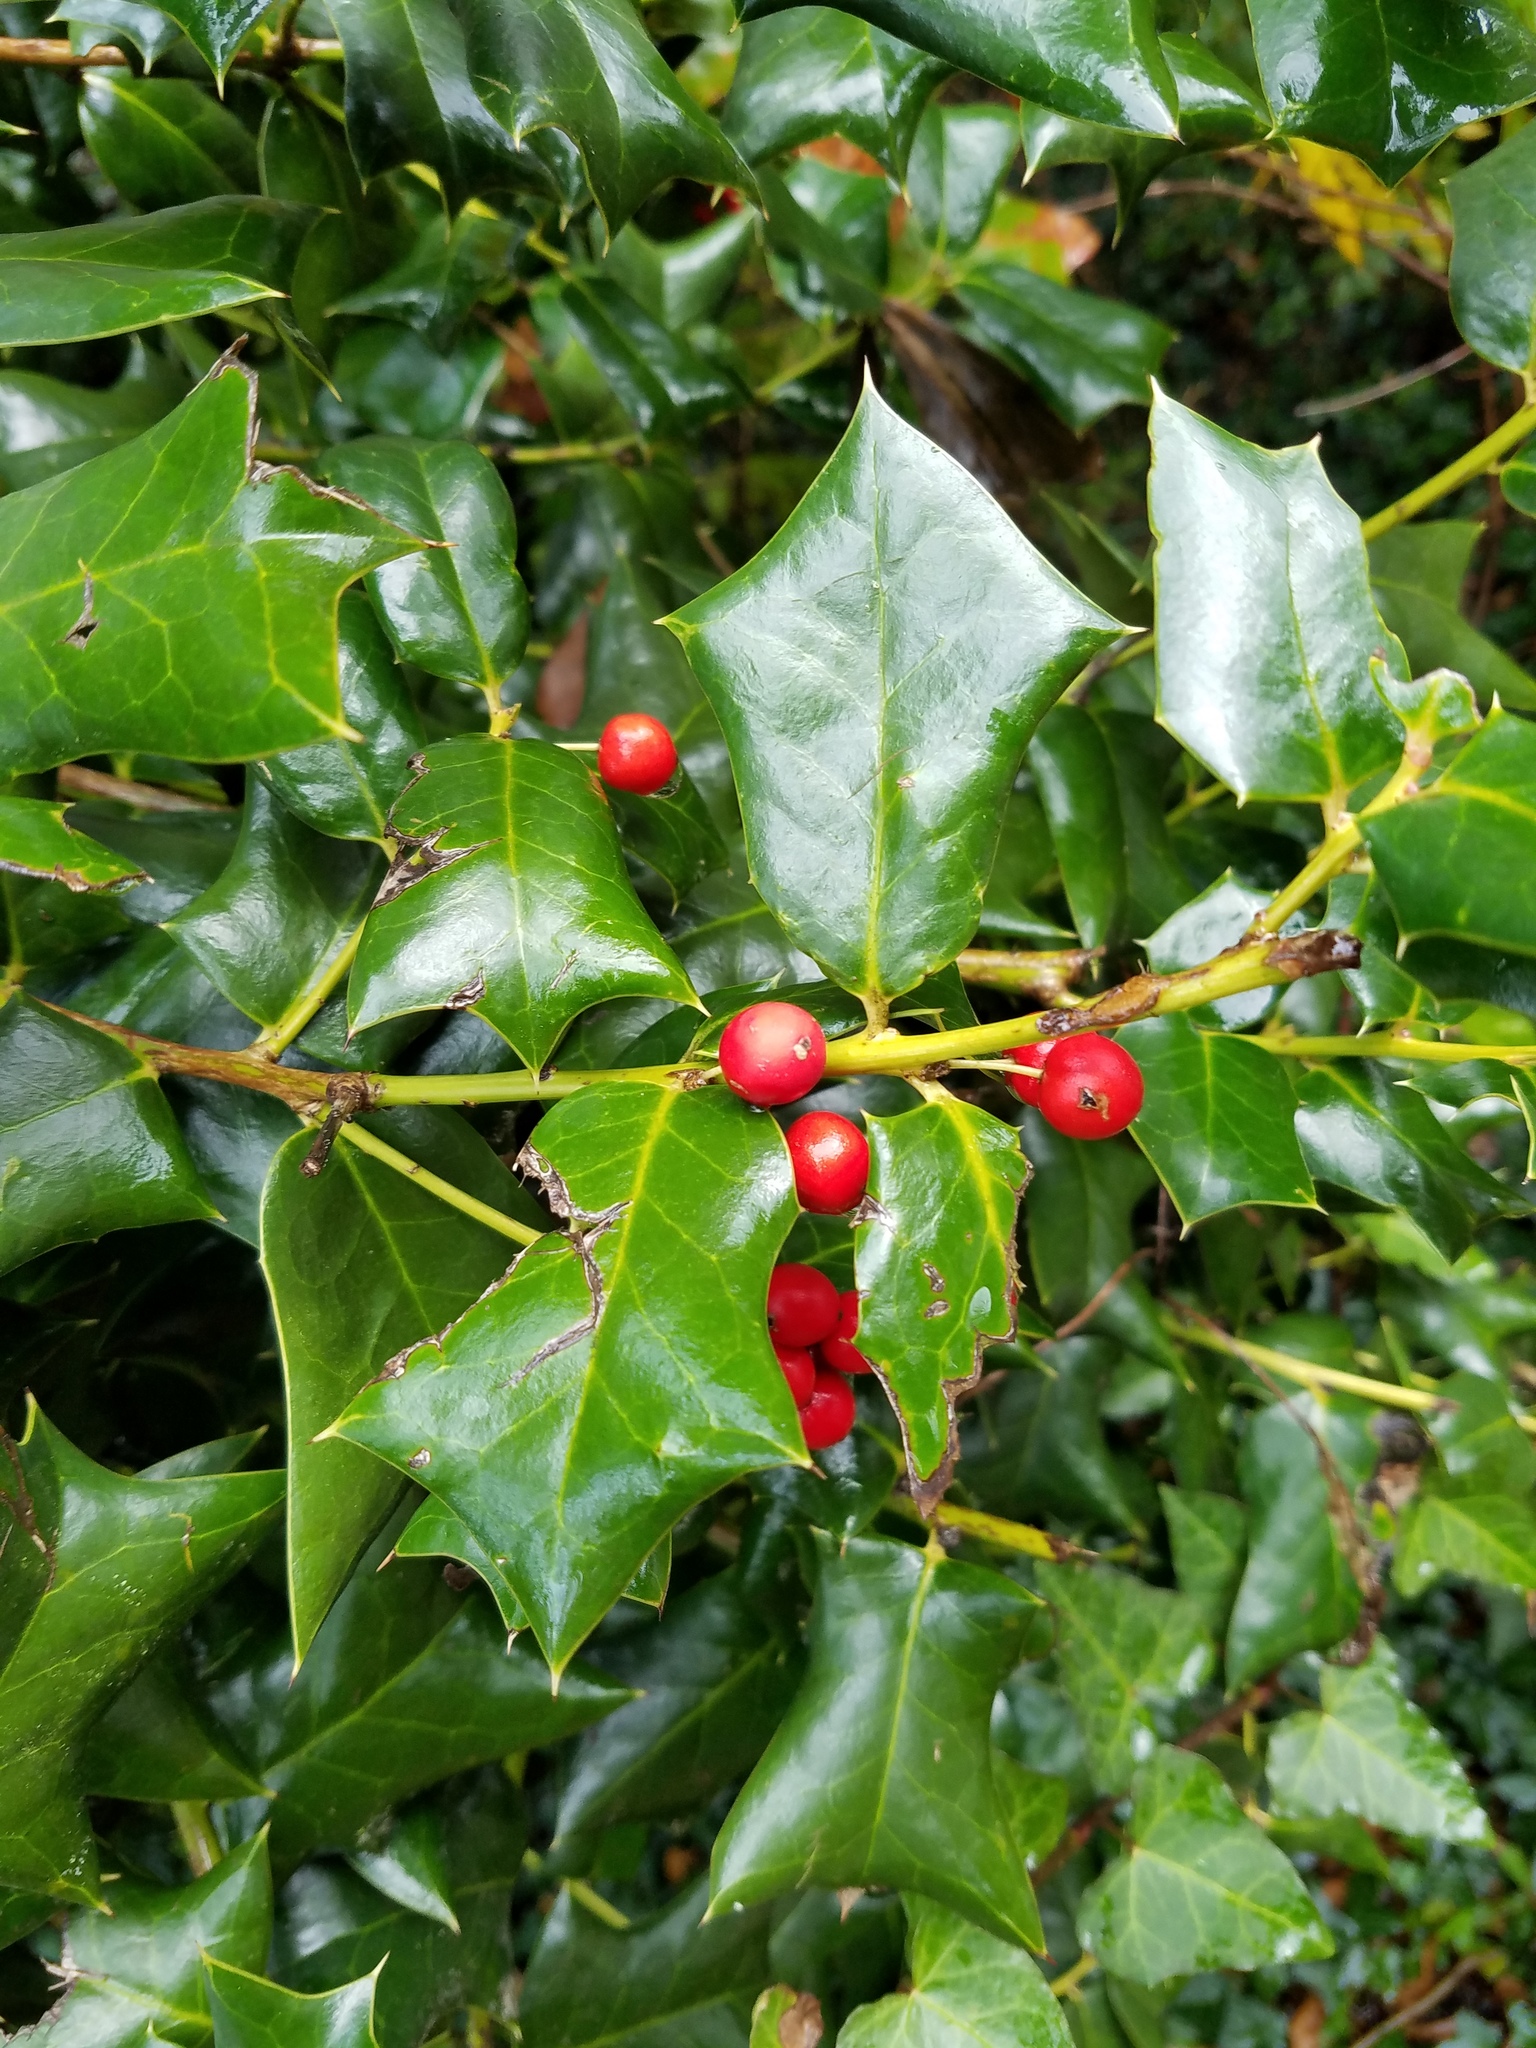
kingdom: Plantae
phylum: Tracheophyta
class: Magnoliopsida
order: Aquifoliales
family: Aquifoliaceae
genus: Ilex
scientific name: Ilex cornuta
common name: Chinese holly
